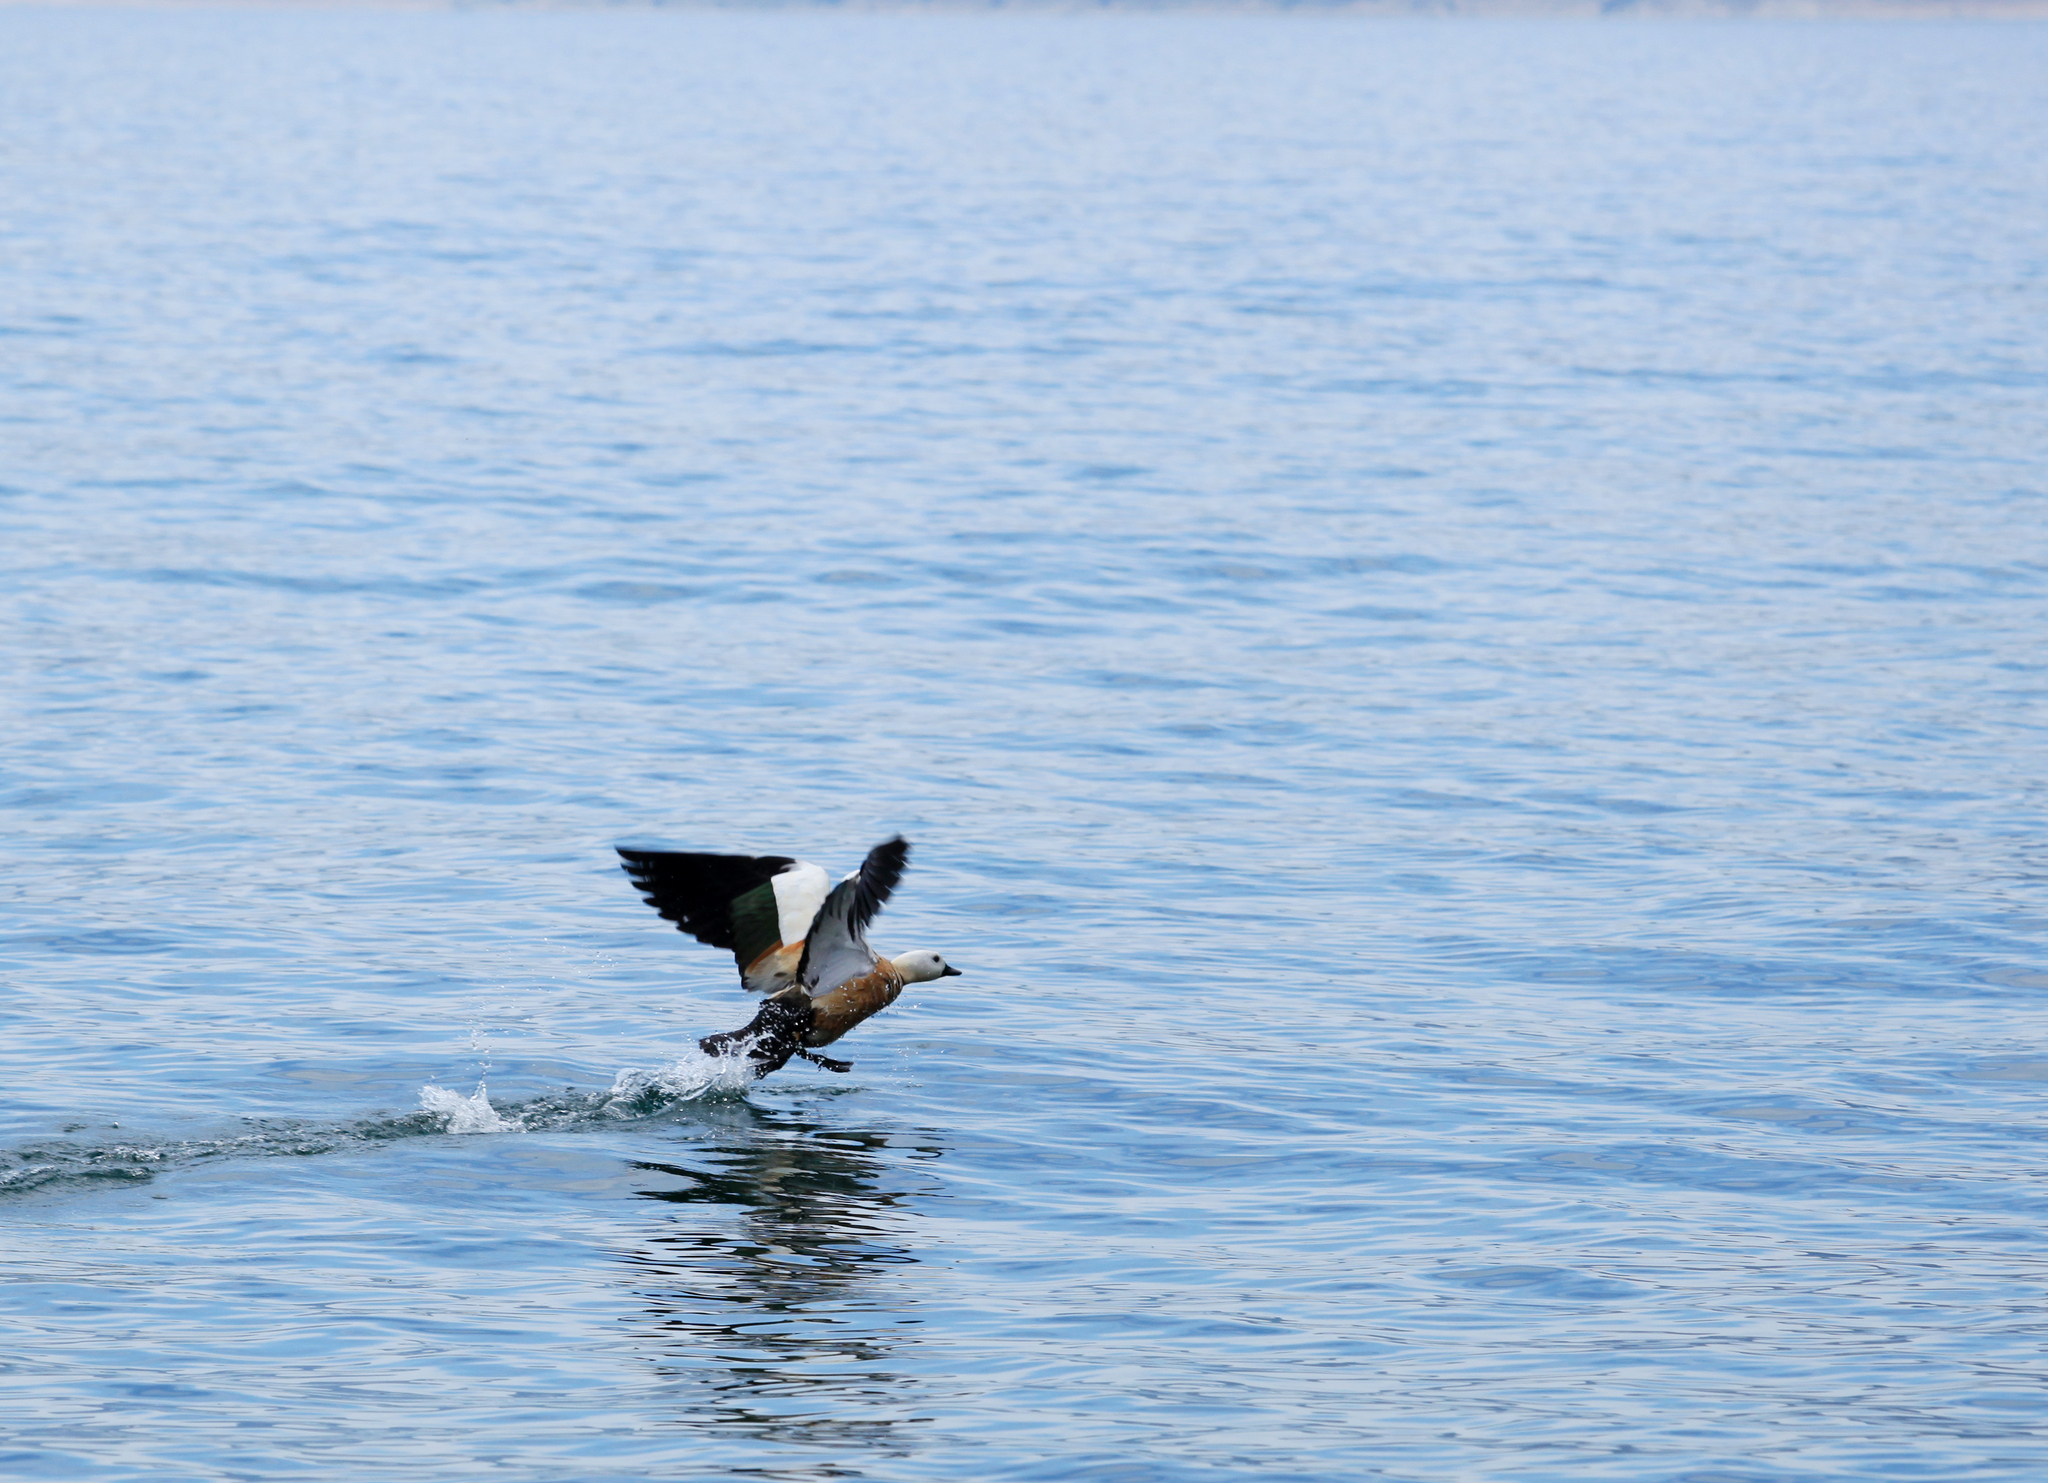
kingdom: Animalia
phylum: Chordata
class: Aves
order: Anseriformes
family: Anatidae
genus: Tadorna
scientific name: Tadorna ferruginea
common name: Ruddy shelduck
